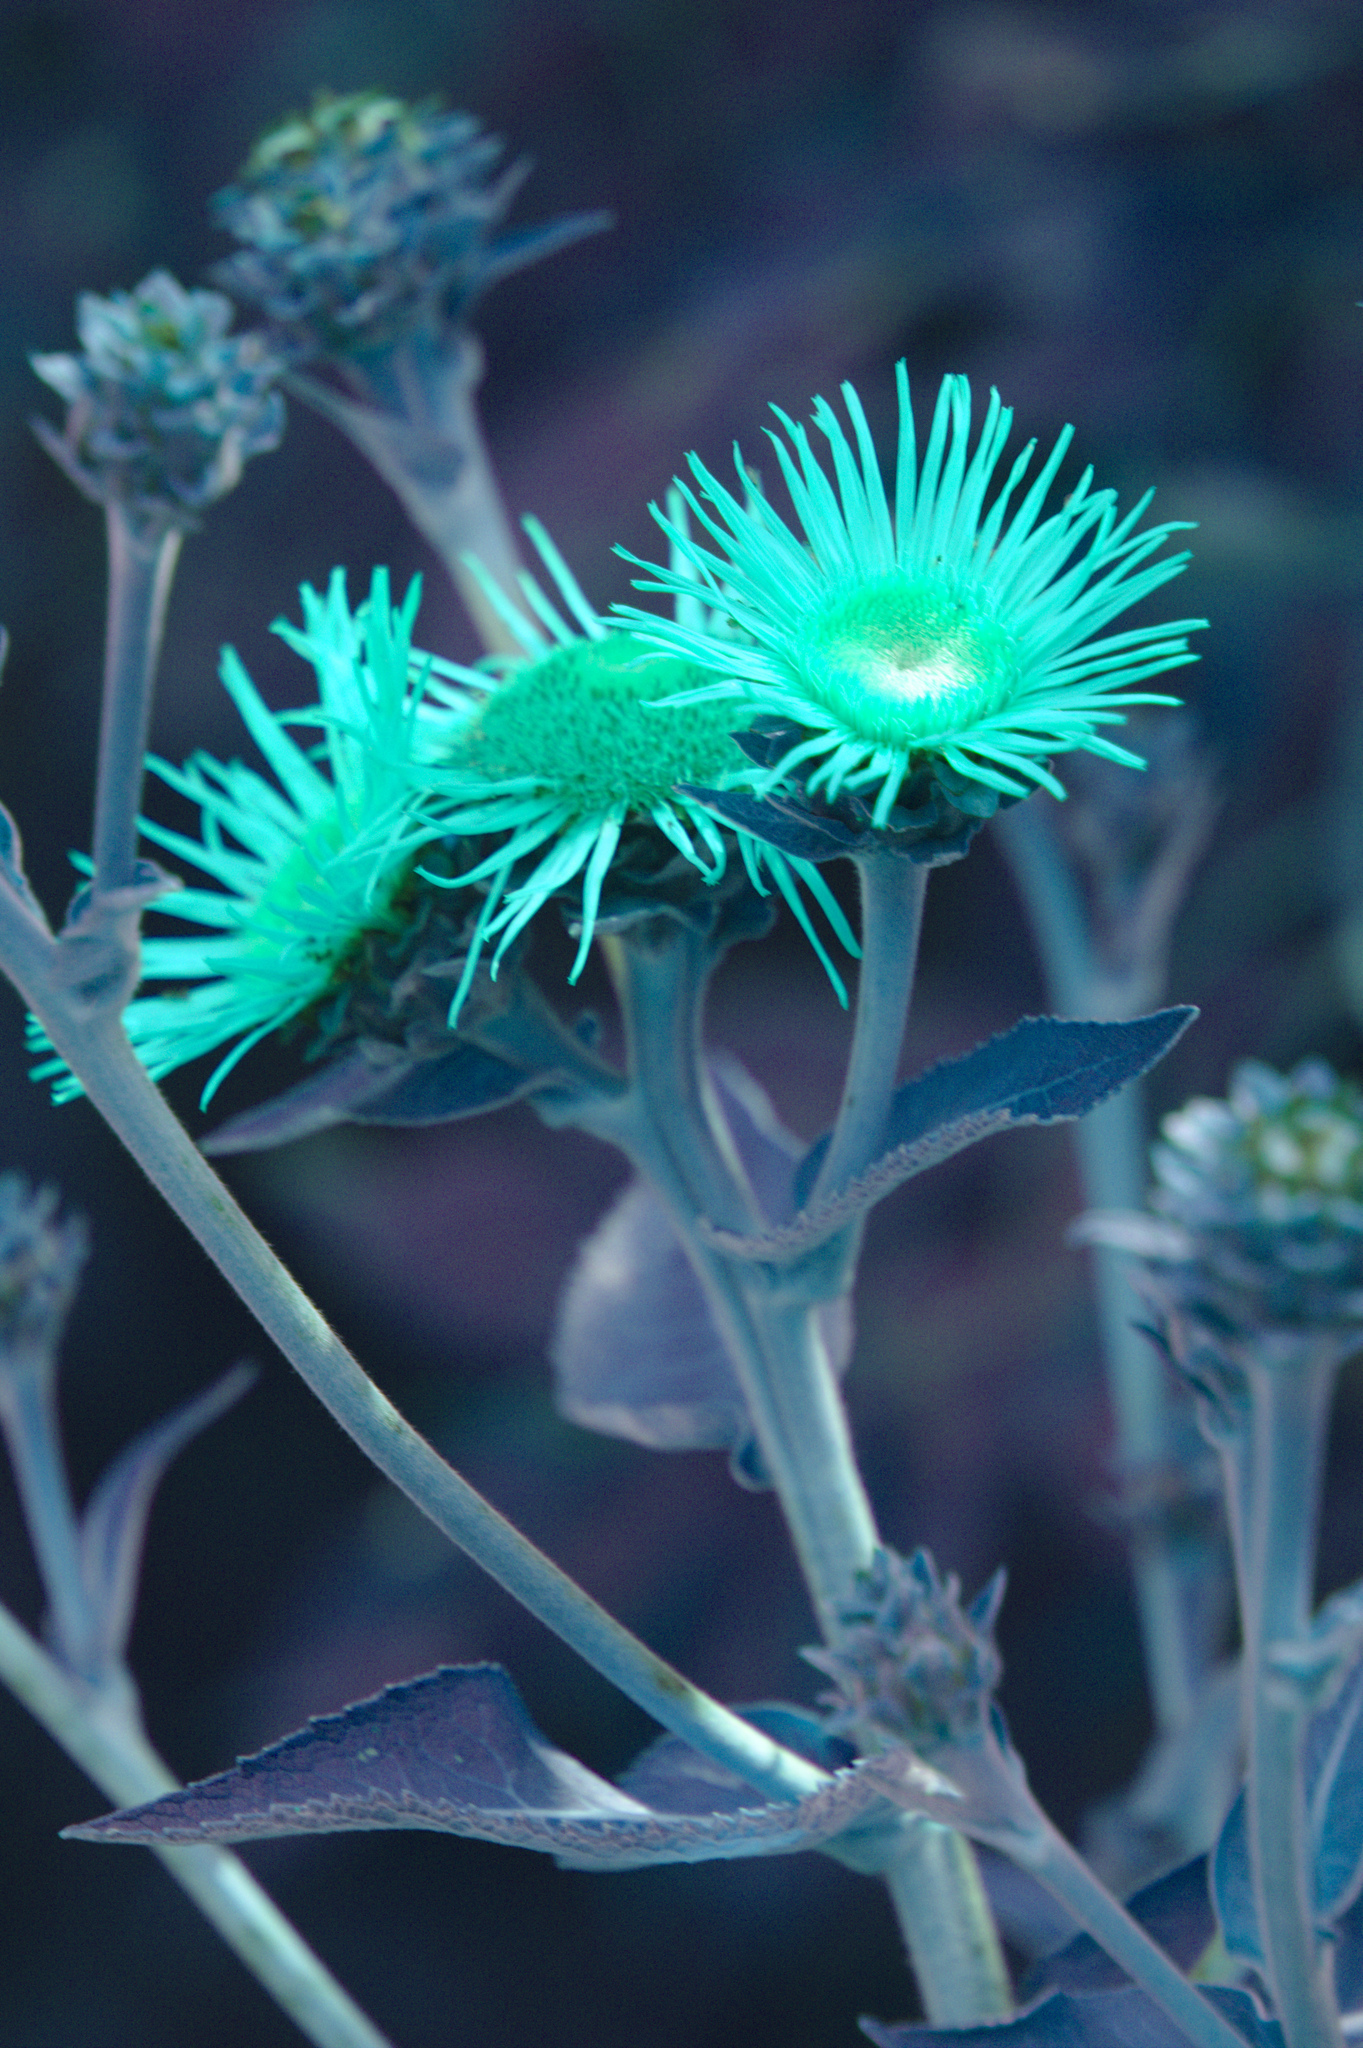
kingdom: Plantae
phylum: Tracheophyta
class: Magnoliopsida
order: Asterales
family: Asteraceae
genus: Inula
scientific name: Inula helenium
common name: Elecampane
